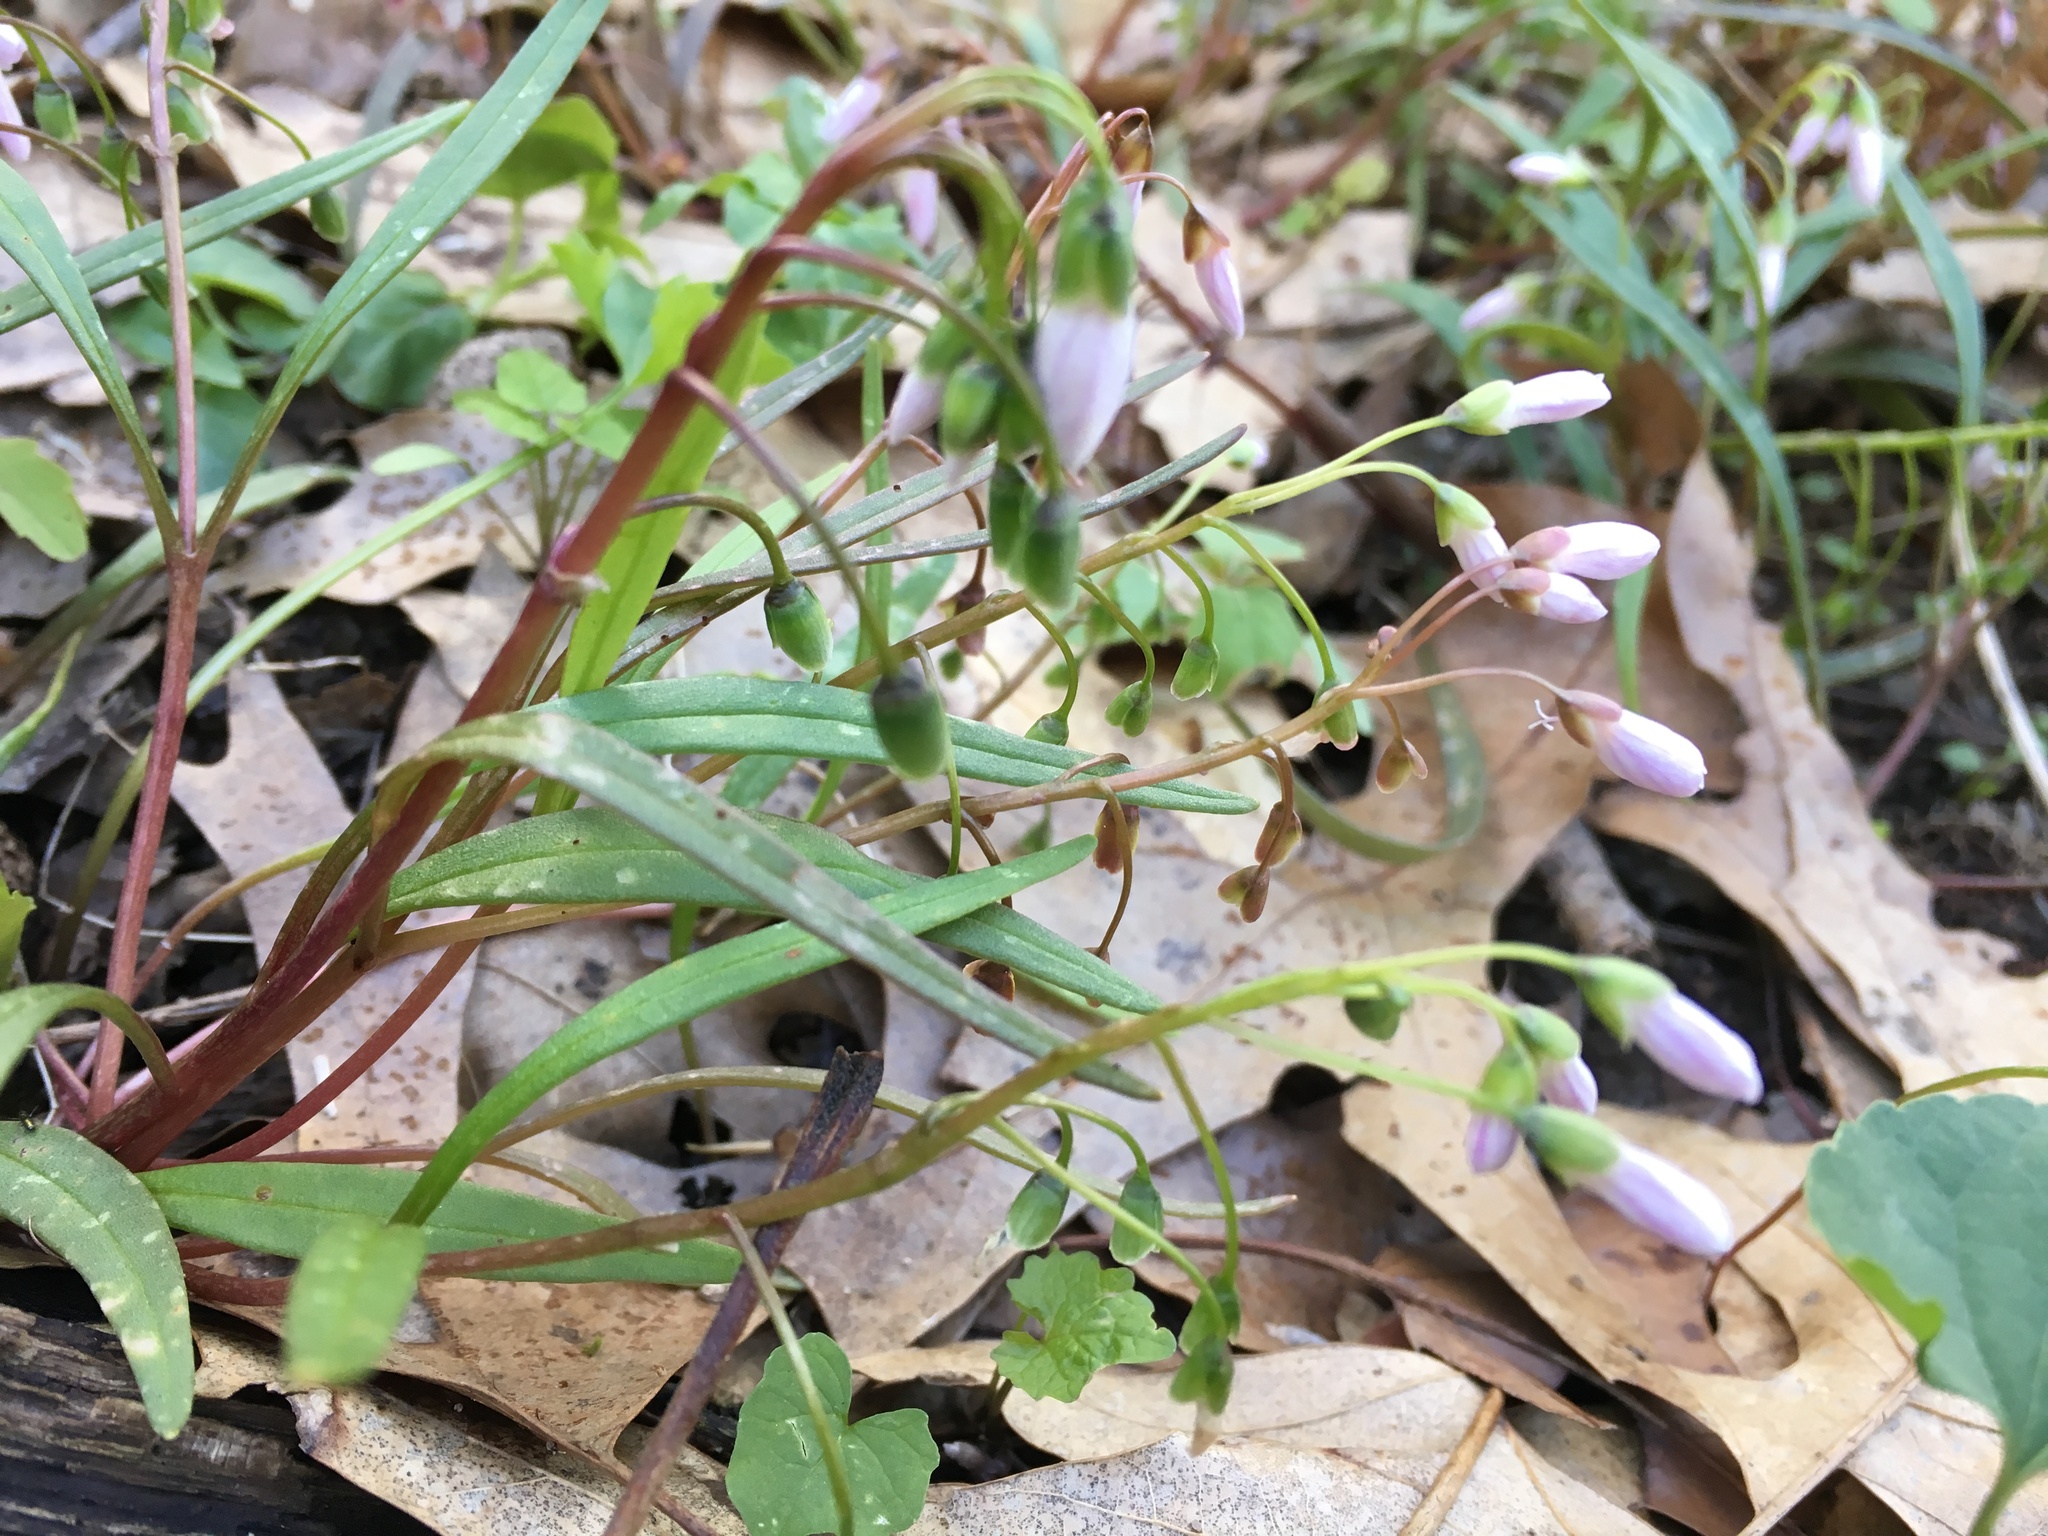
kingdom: Plantae
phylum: Tracheophyta
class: Magnoliopsida
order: Caryophyllales
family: Montiaceae
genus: Claytonia
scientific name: Claytonia virginica
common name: Virginia springbeauty
